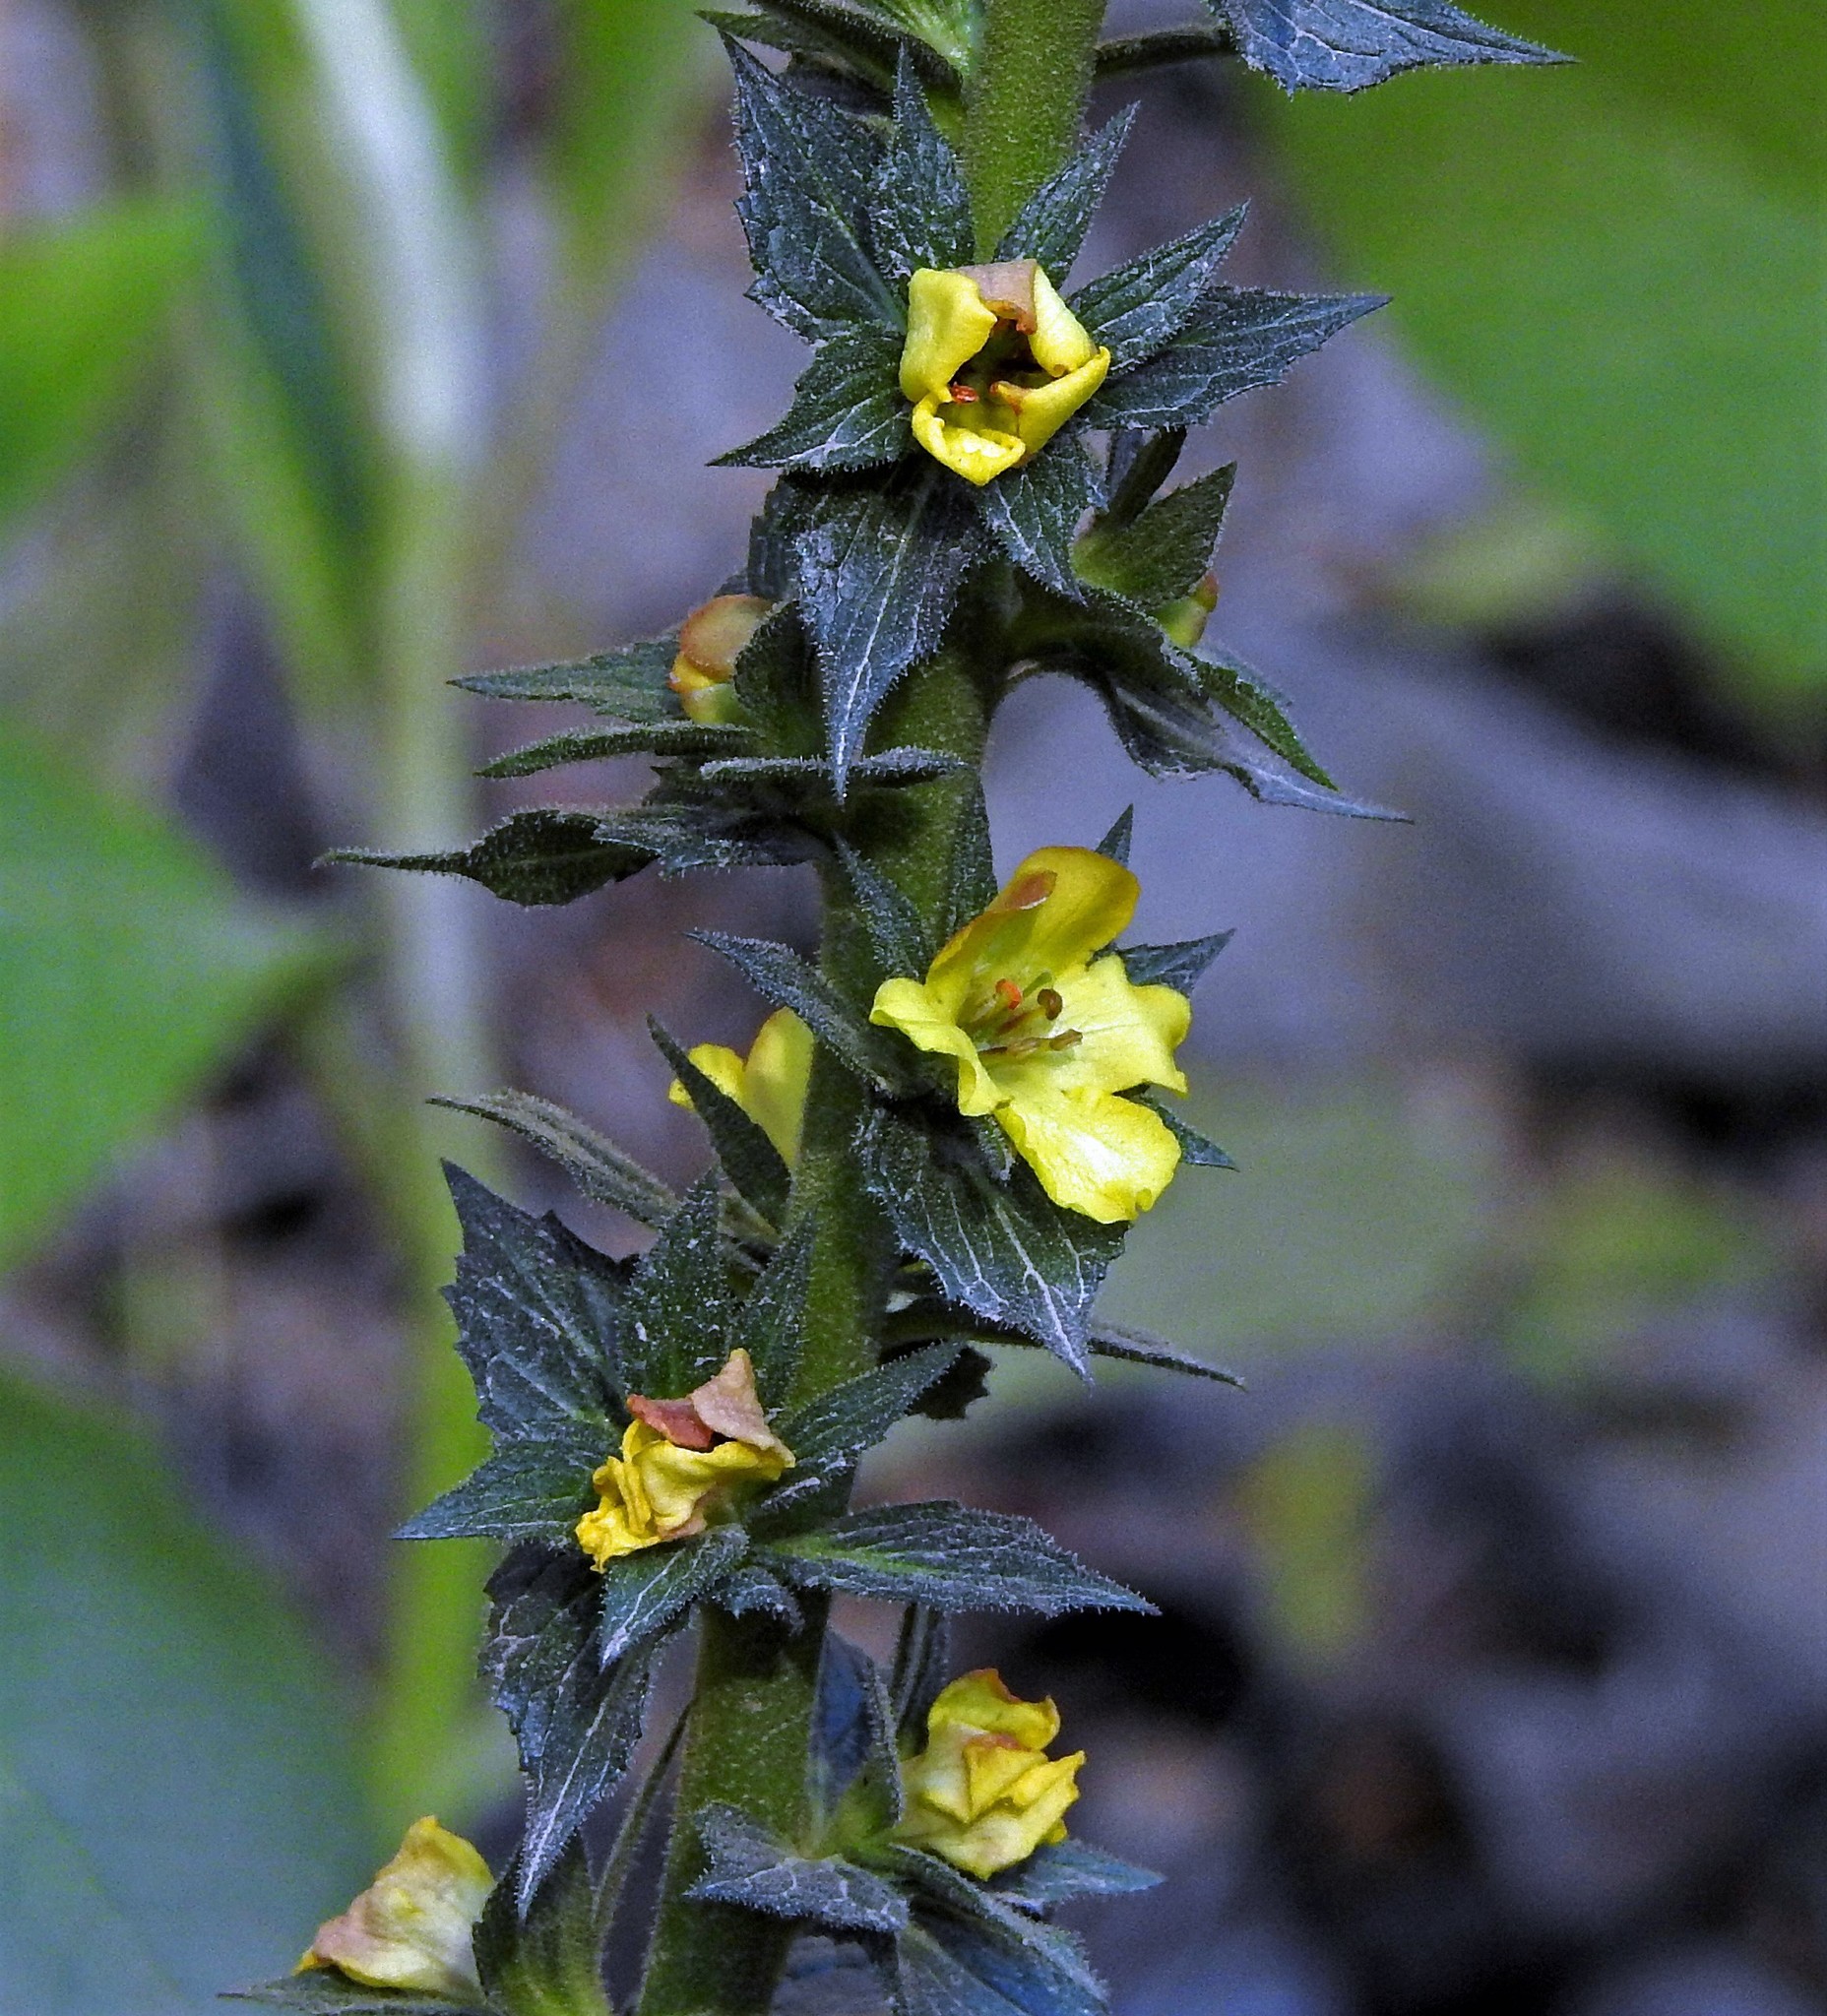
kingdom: Plantae
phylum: Tracheophyta
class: Magnoliopsida
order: Lamiales
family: Scrophulariaceae
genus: Verbascum
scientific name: Verbascum virgatum
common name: Twiggy mullein
